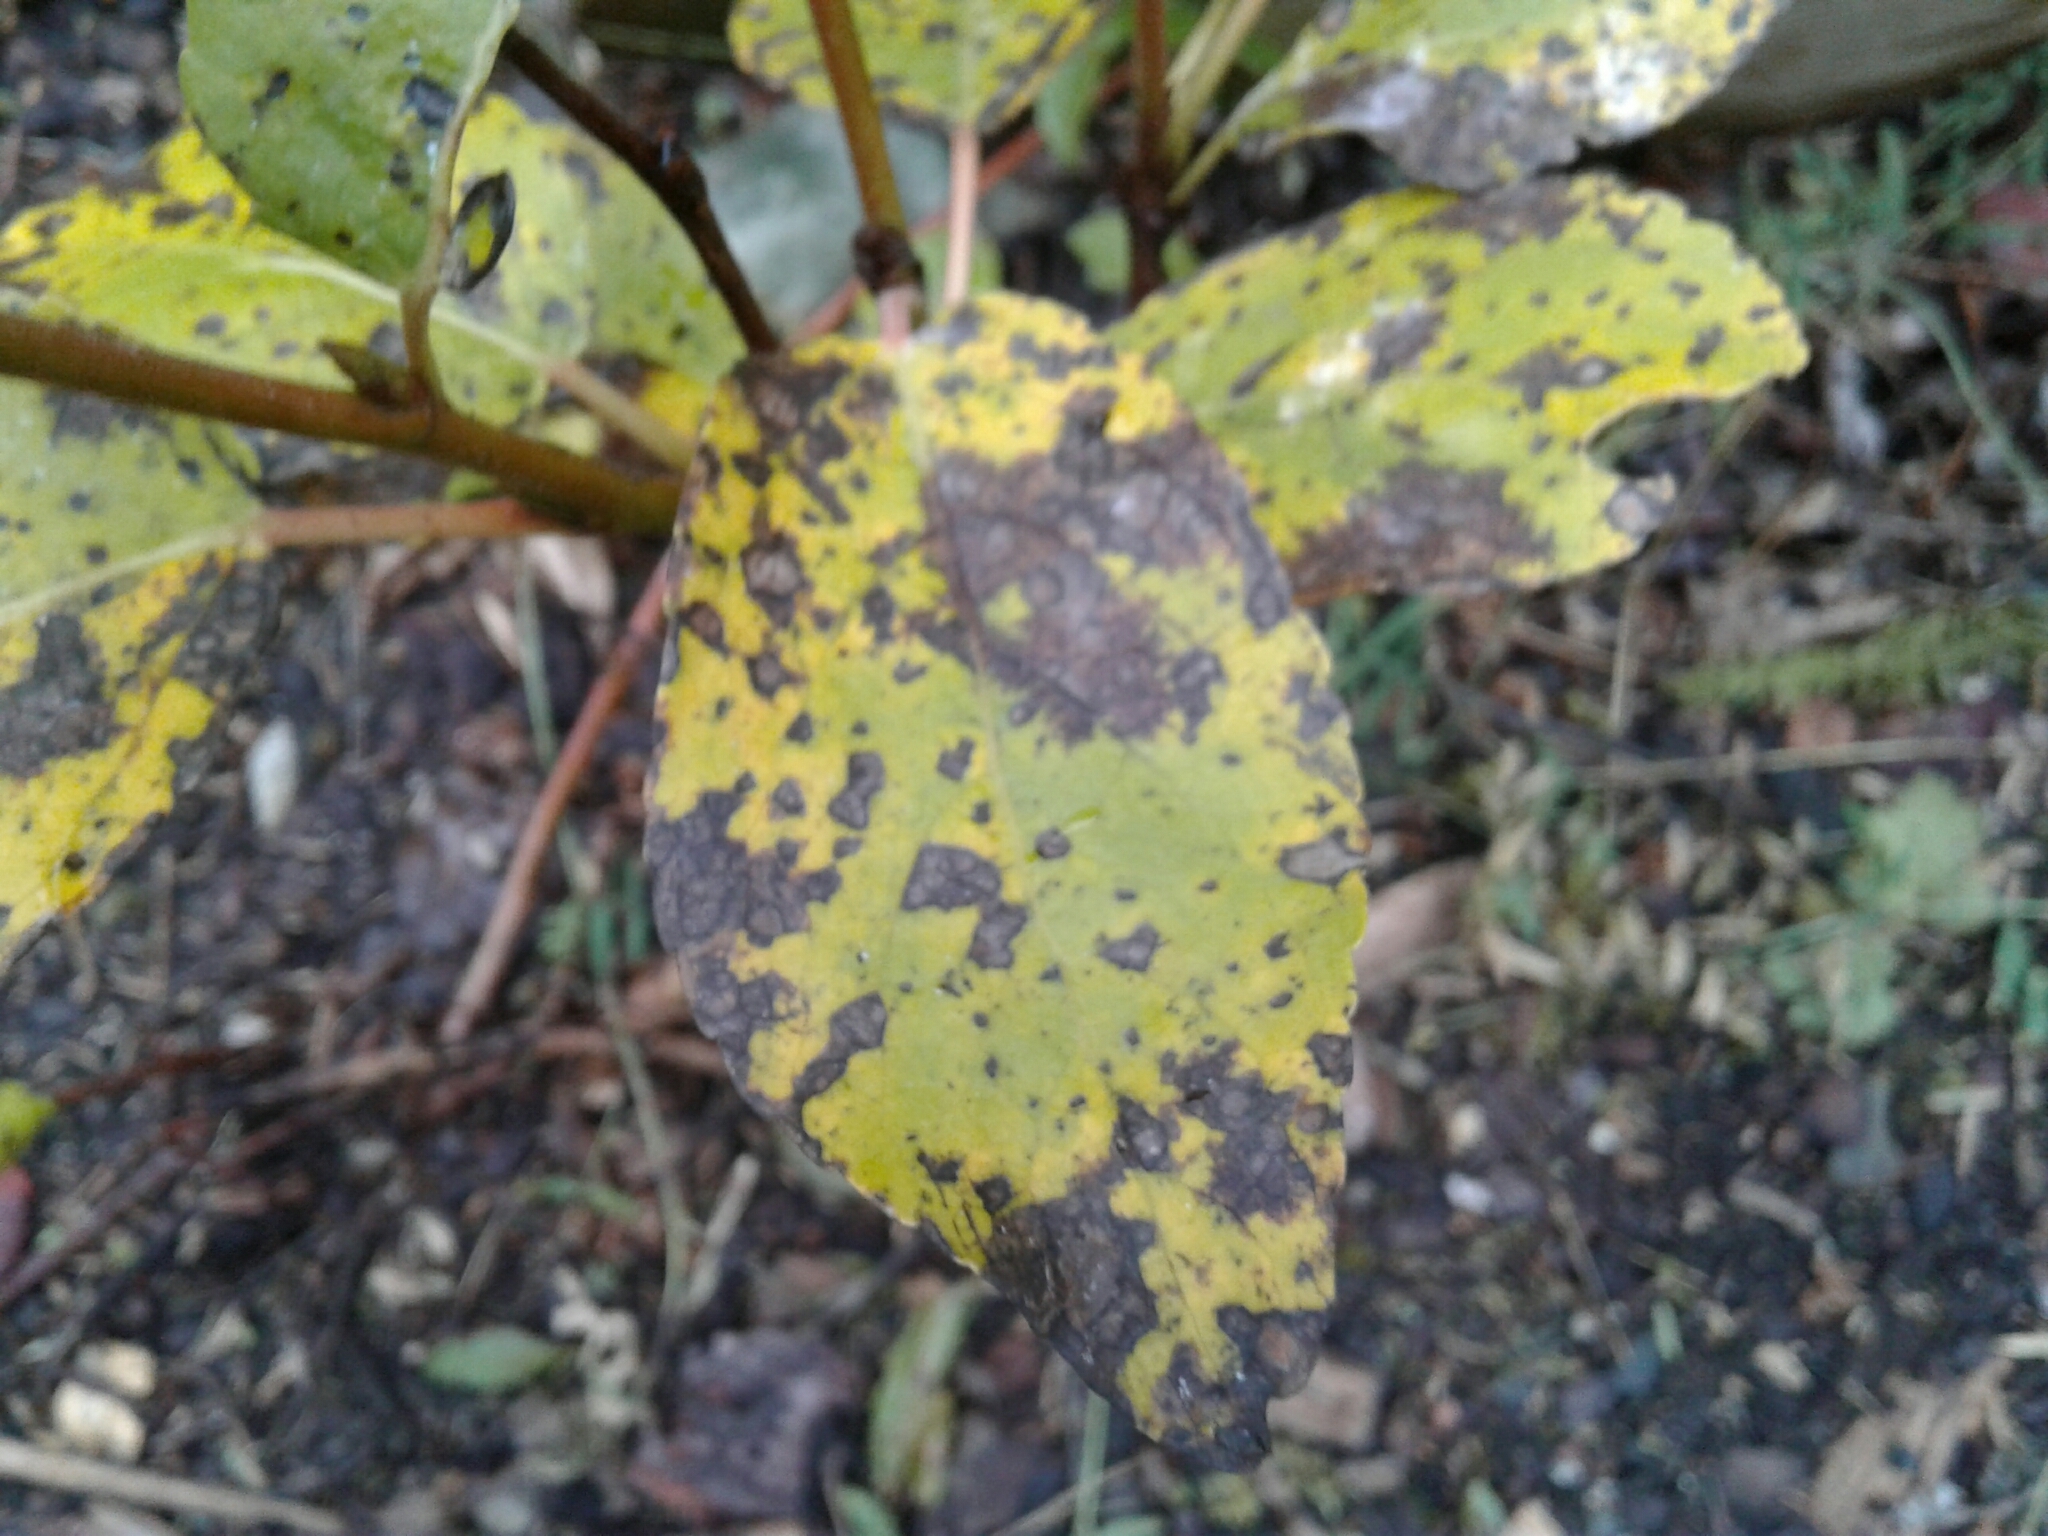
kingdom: Plantae
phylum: Tracheophyta
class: Magnoliopsida
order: Malpighiales
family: Salicaceae
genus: Populus
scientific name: Populus balsamifera
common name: Balsam poplar
